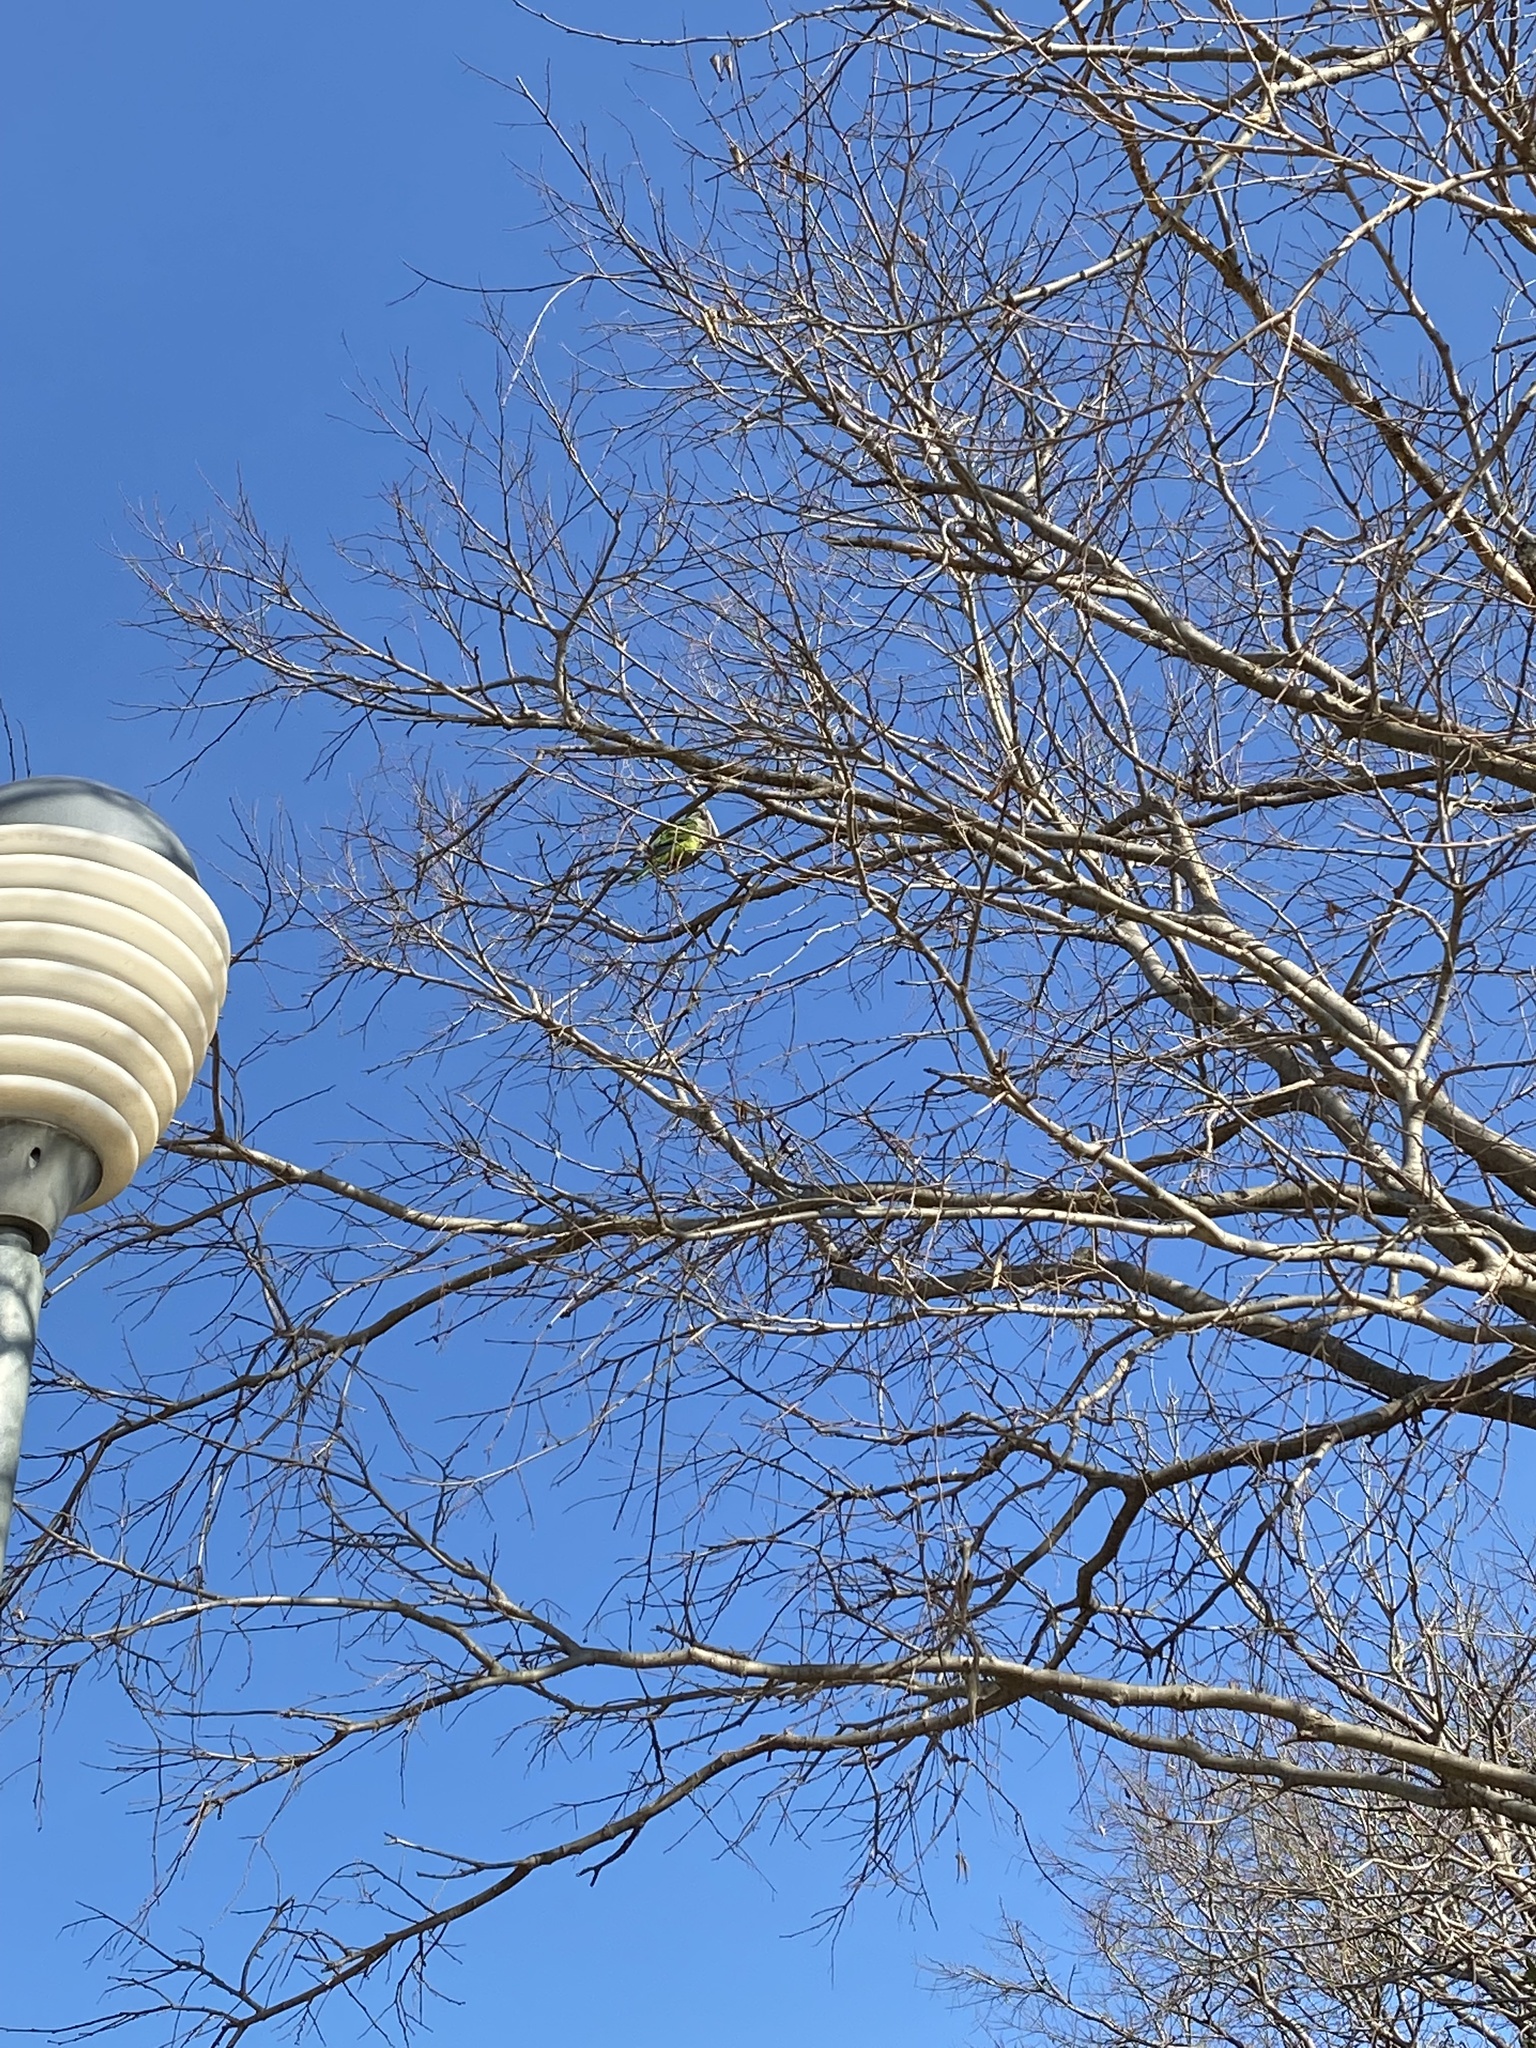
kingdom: Animalia
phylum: Chordata
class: Aves
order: Psittaciformes
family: Psittacidae
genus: Myiopsitta
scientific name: Myiopsitta monachus
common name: Monk parakeet
